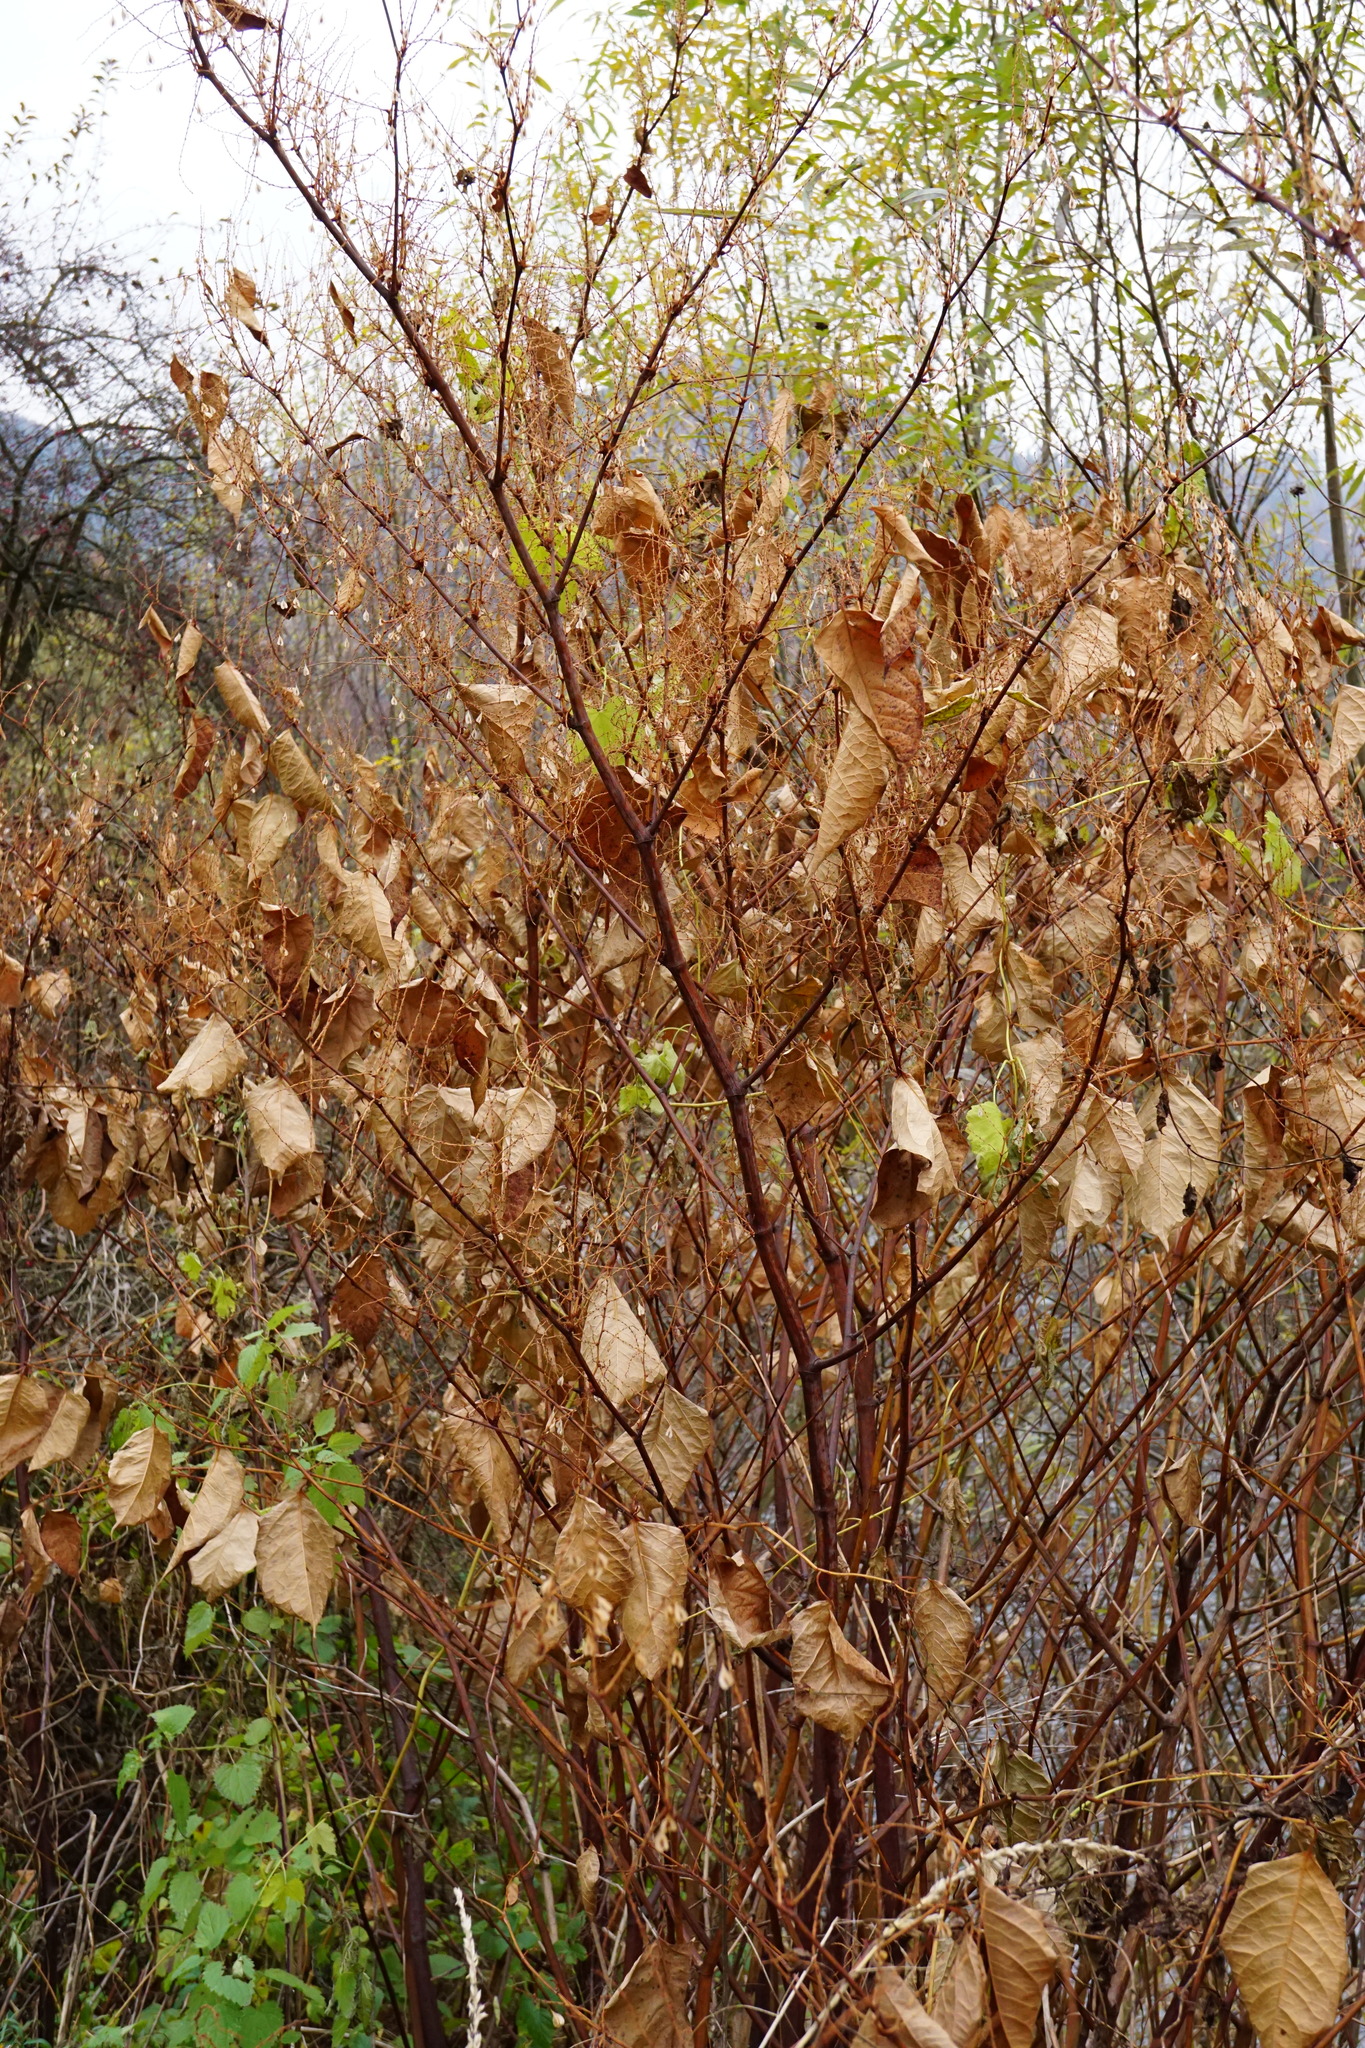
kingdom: Plantae
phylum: Tracheophyta
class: Magnoliopsida
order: Caryophyllales
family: Polygonaceae
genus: Reynoutria
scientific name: Reynoutria japonica
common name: Japanese knotweed
